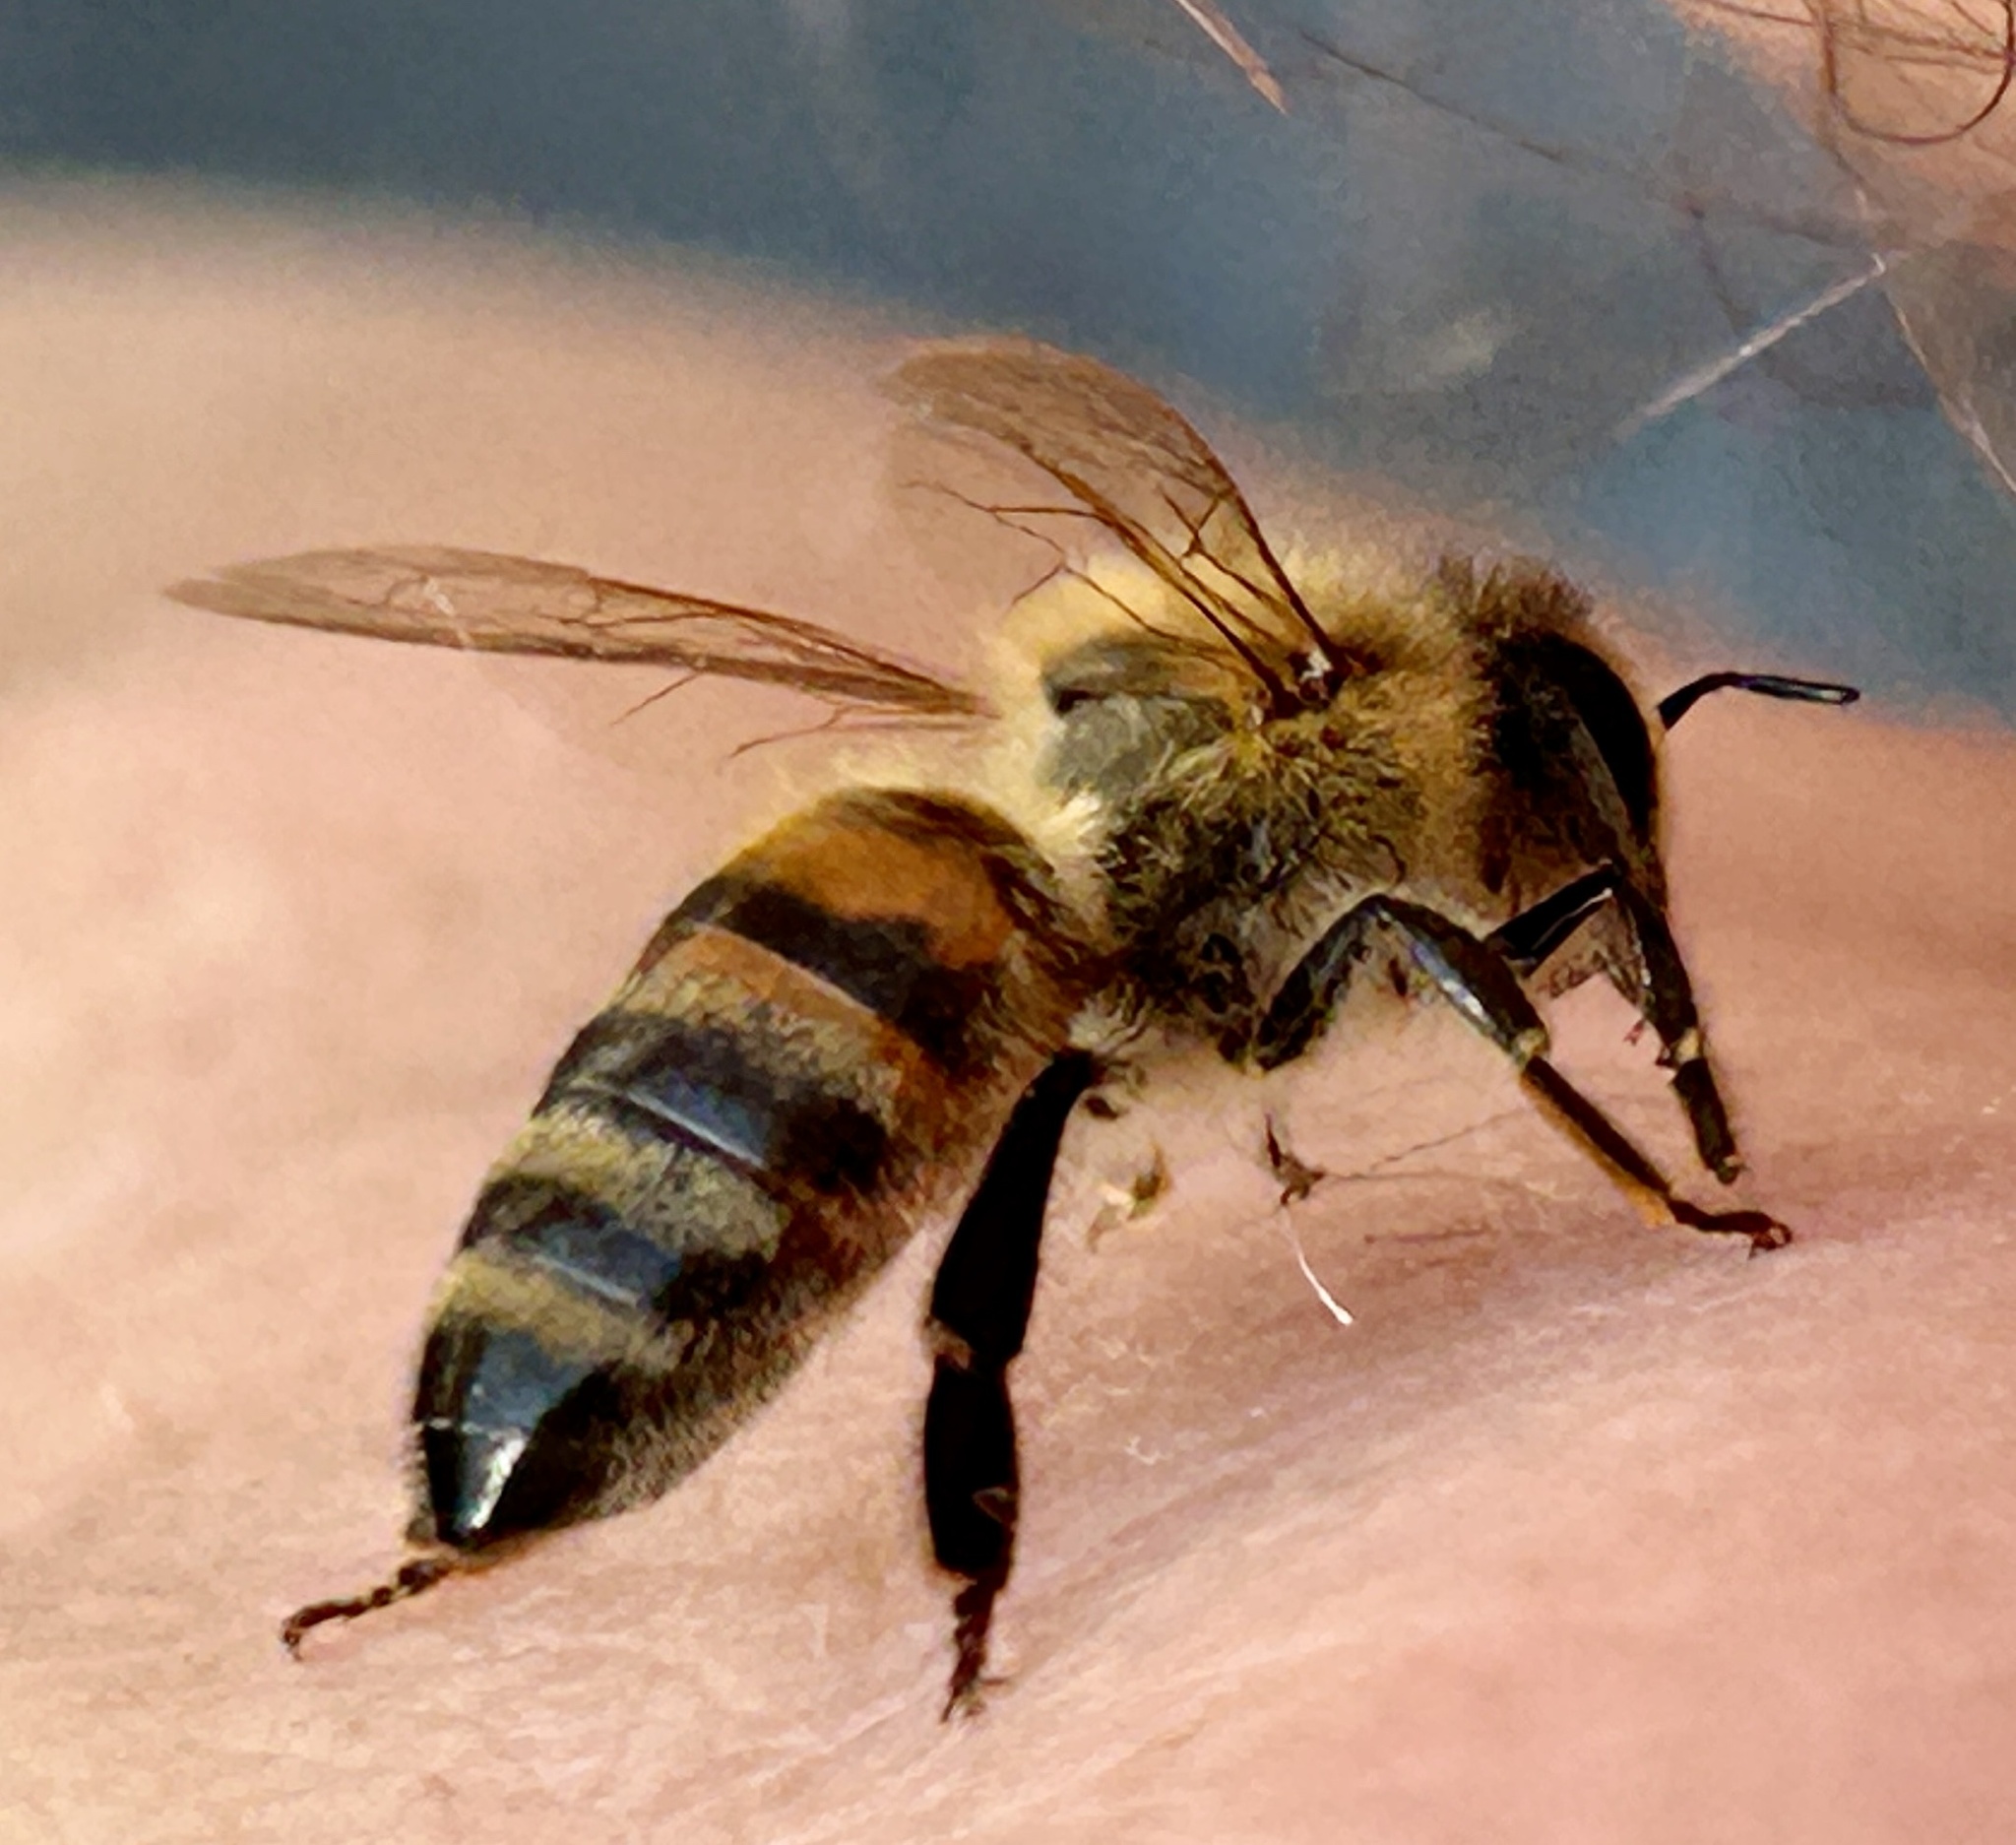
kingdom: Animalia
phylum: Arthropoda
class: Insecta
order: Hymenoptera
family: Apidae
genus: Apis
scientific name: Apis mellifera
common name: Honey bee
